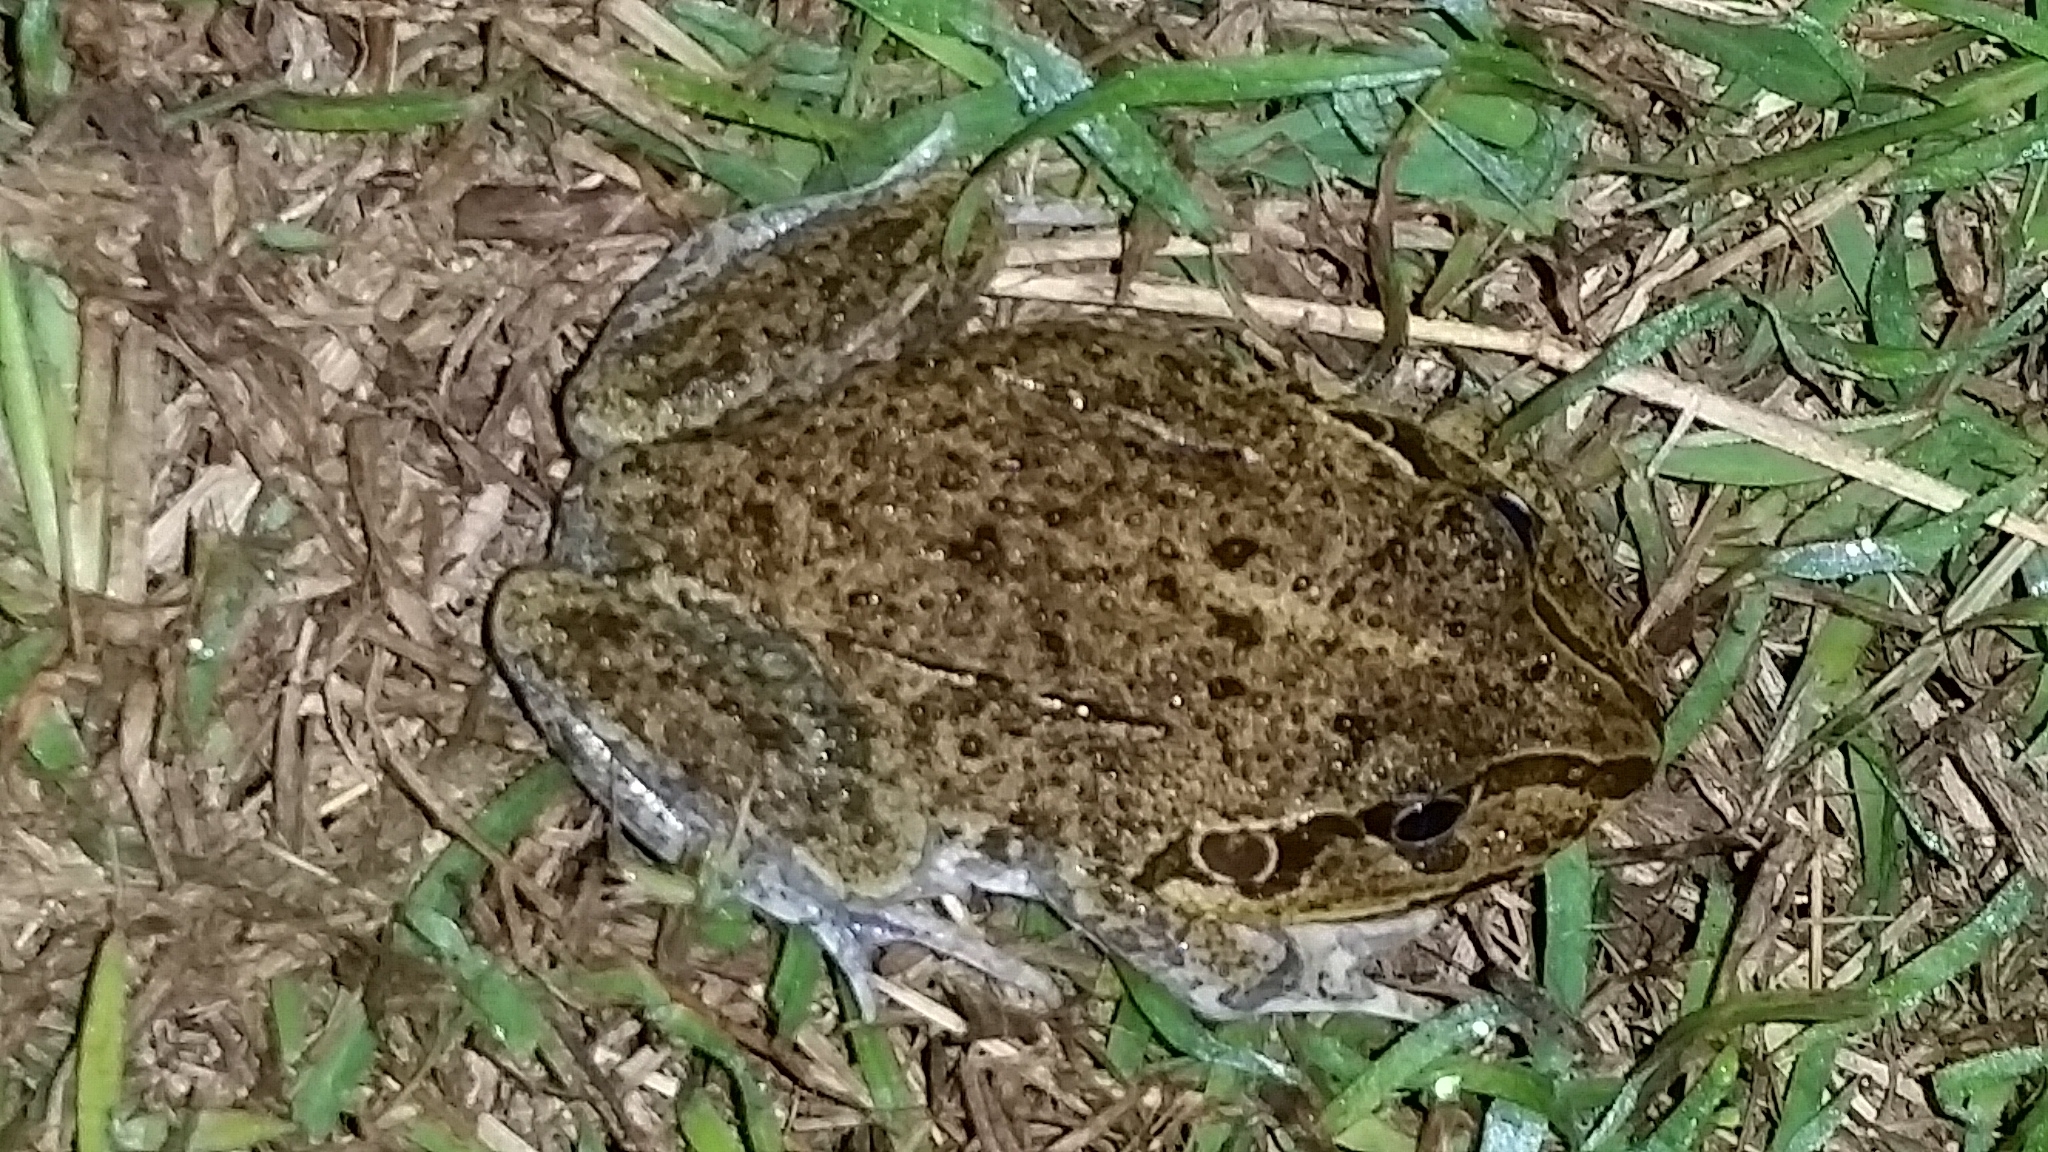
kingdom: Animalia
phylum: Chordata
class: Amphibia
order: Anura
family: Pelodryadidae
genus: Ranoidea
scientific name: Ranoidea novaehollandiae
